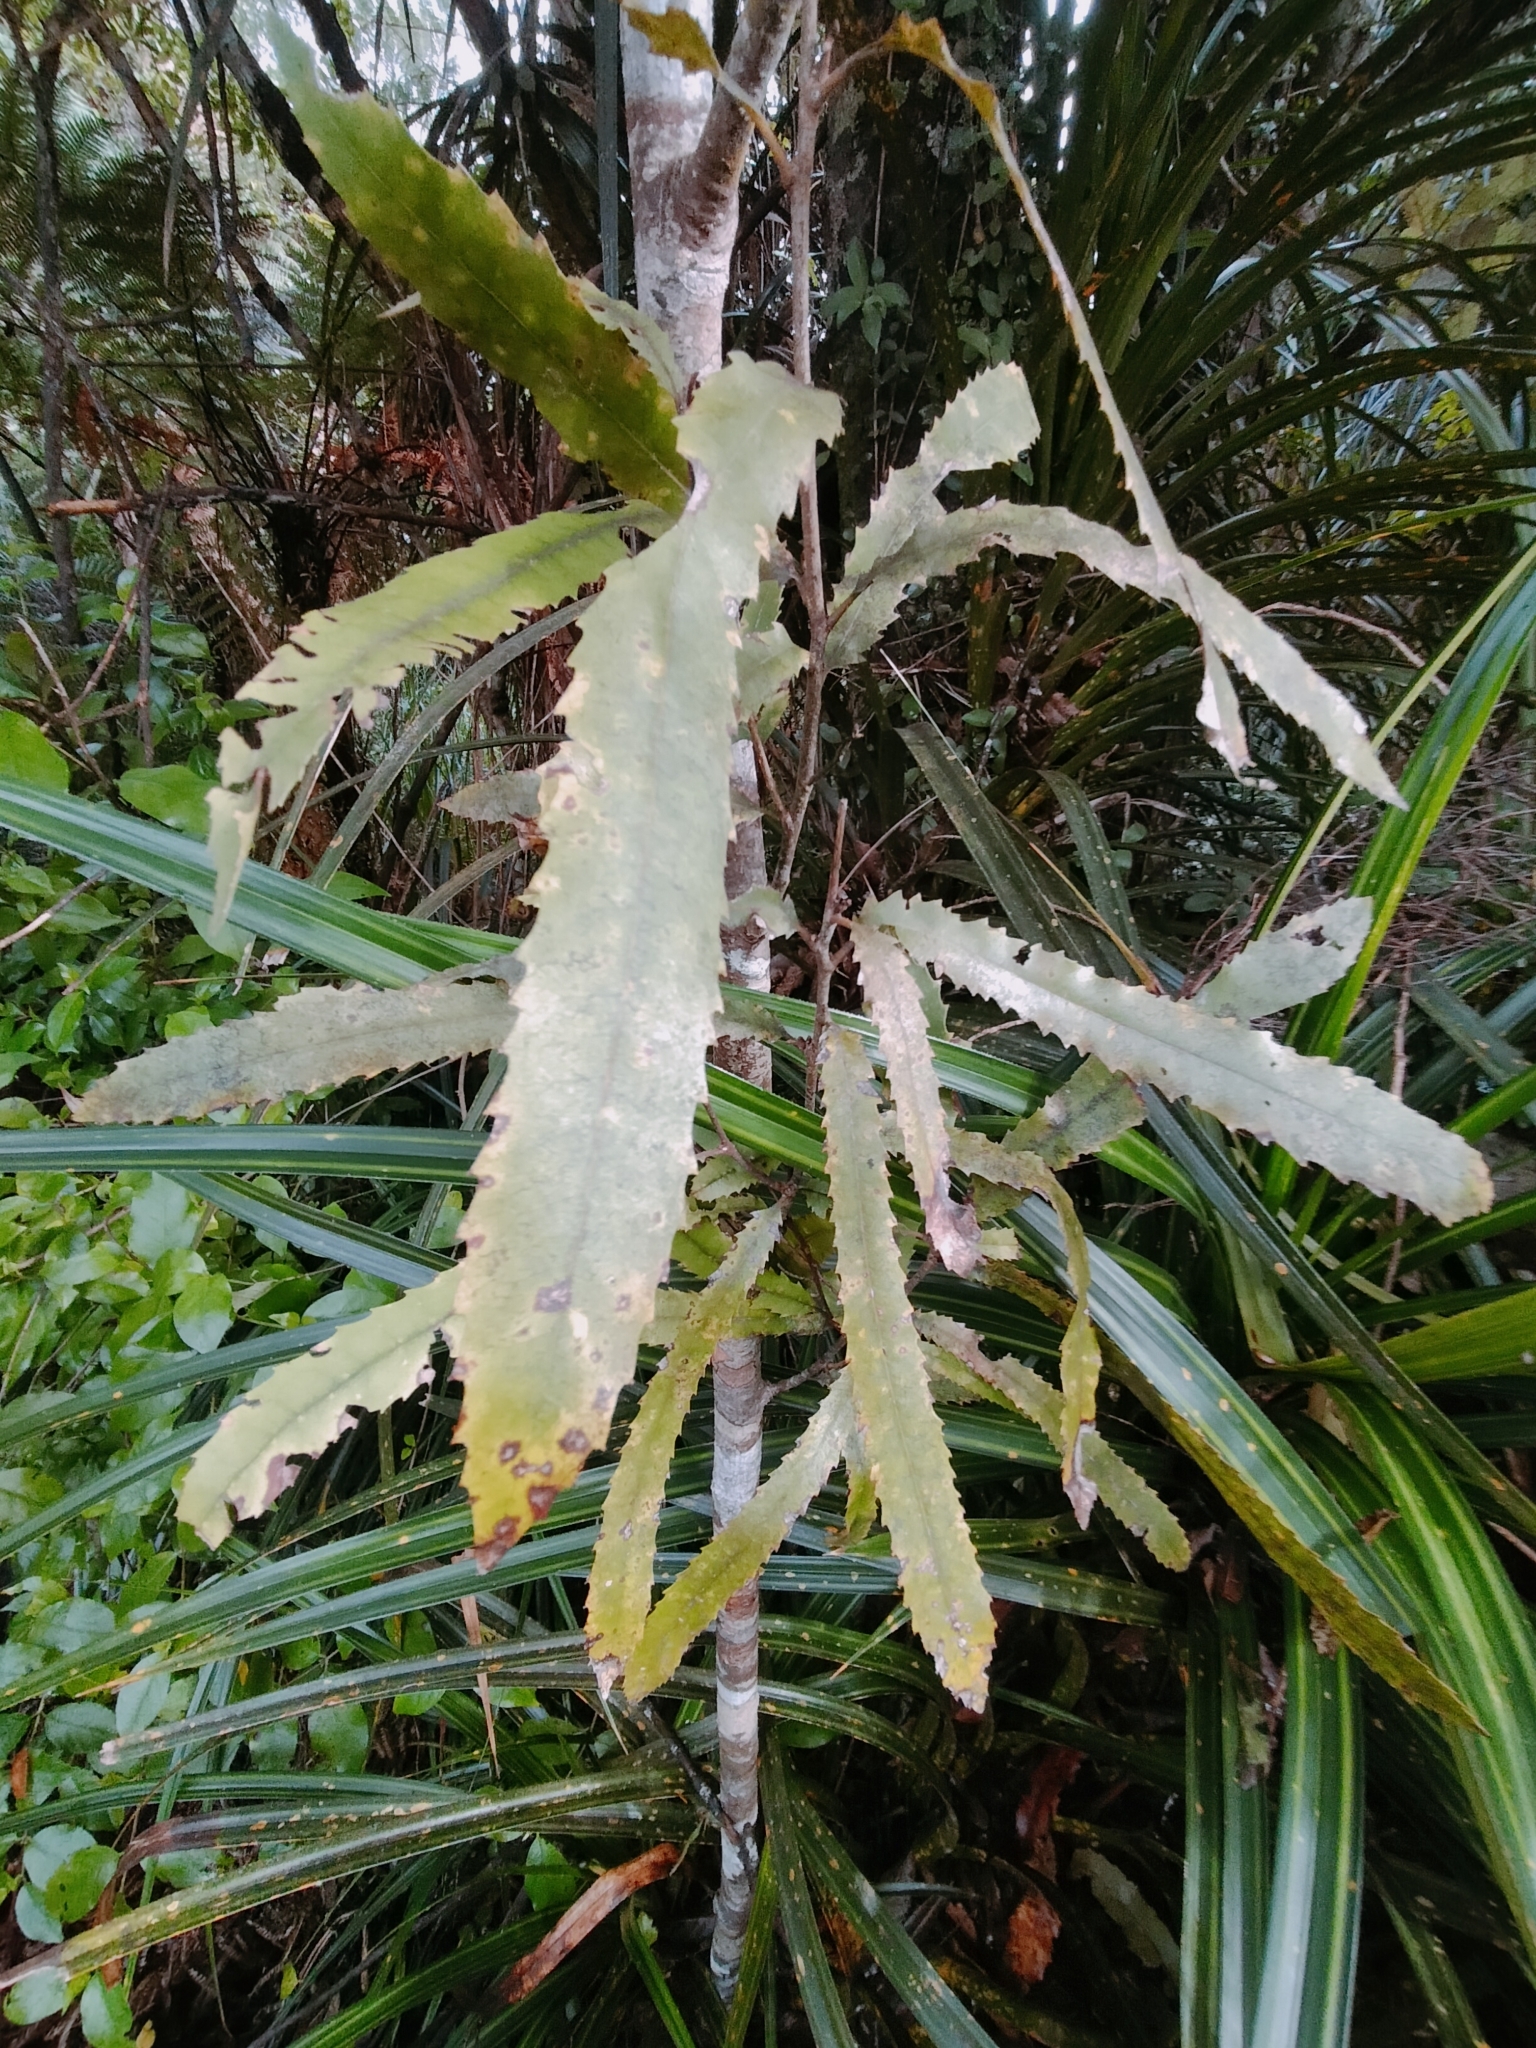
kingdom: Plantae
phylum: Tracheophyta
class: Magnoliopsida
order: Proteales
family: Proteaceae
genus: Knightia
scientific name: Knightia excelsa
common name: New zealand-honeysuckle
